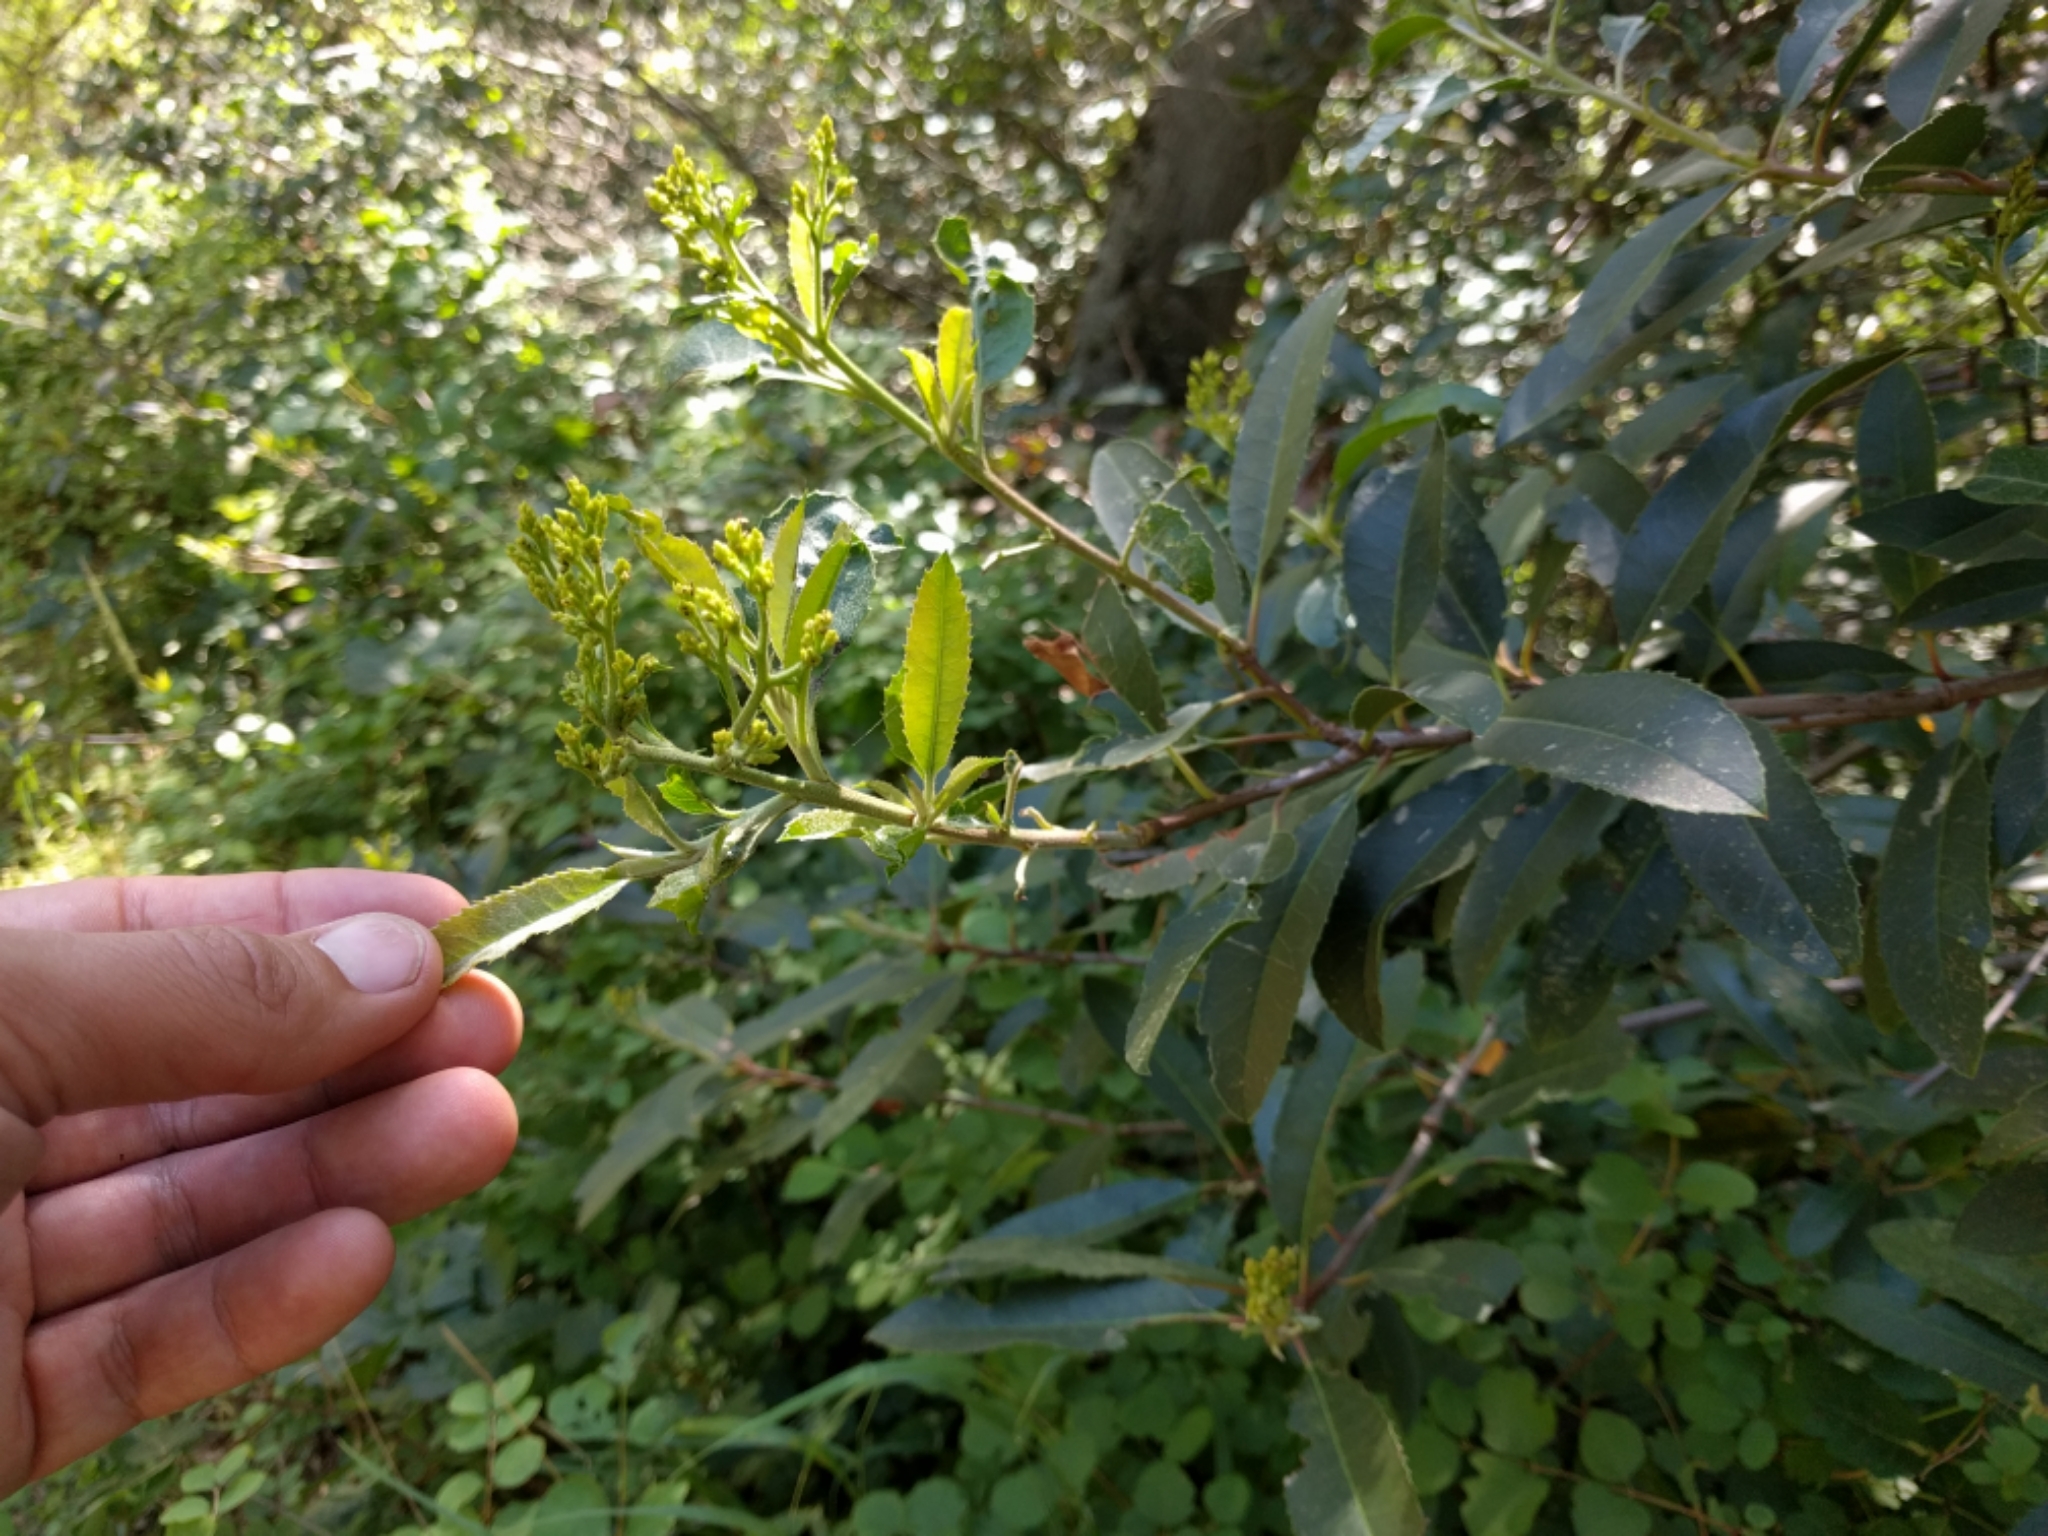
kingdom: Plantae
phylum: Tracheophyta
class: Magnoliopsida
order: Rosales
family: Rosaceae
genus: Heteromeles
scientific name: Heteromeles arbutifolia
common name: California-holly
